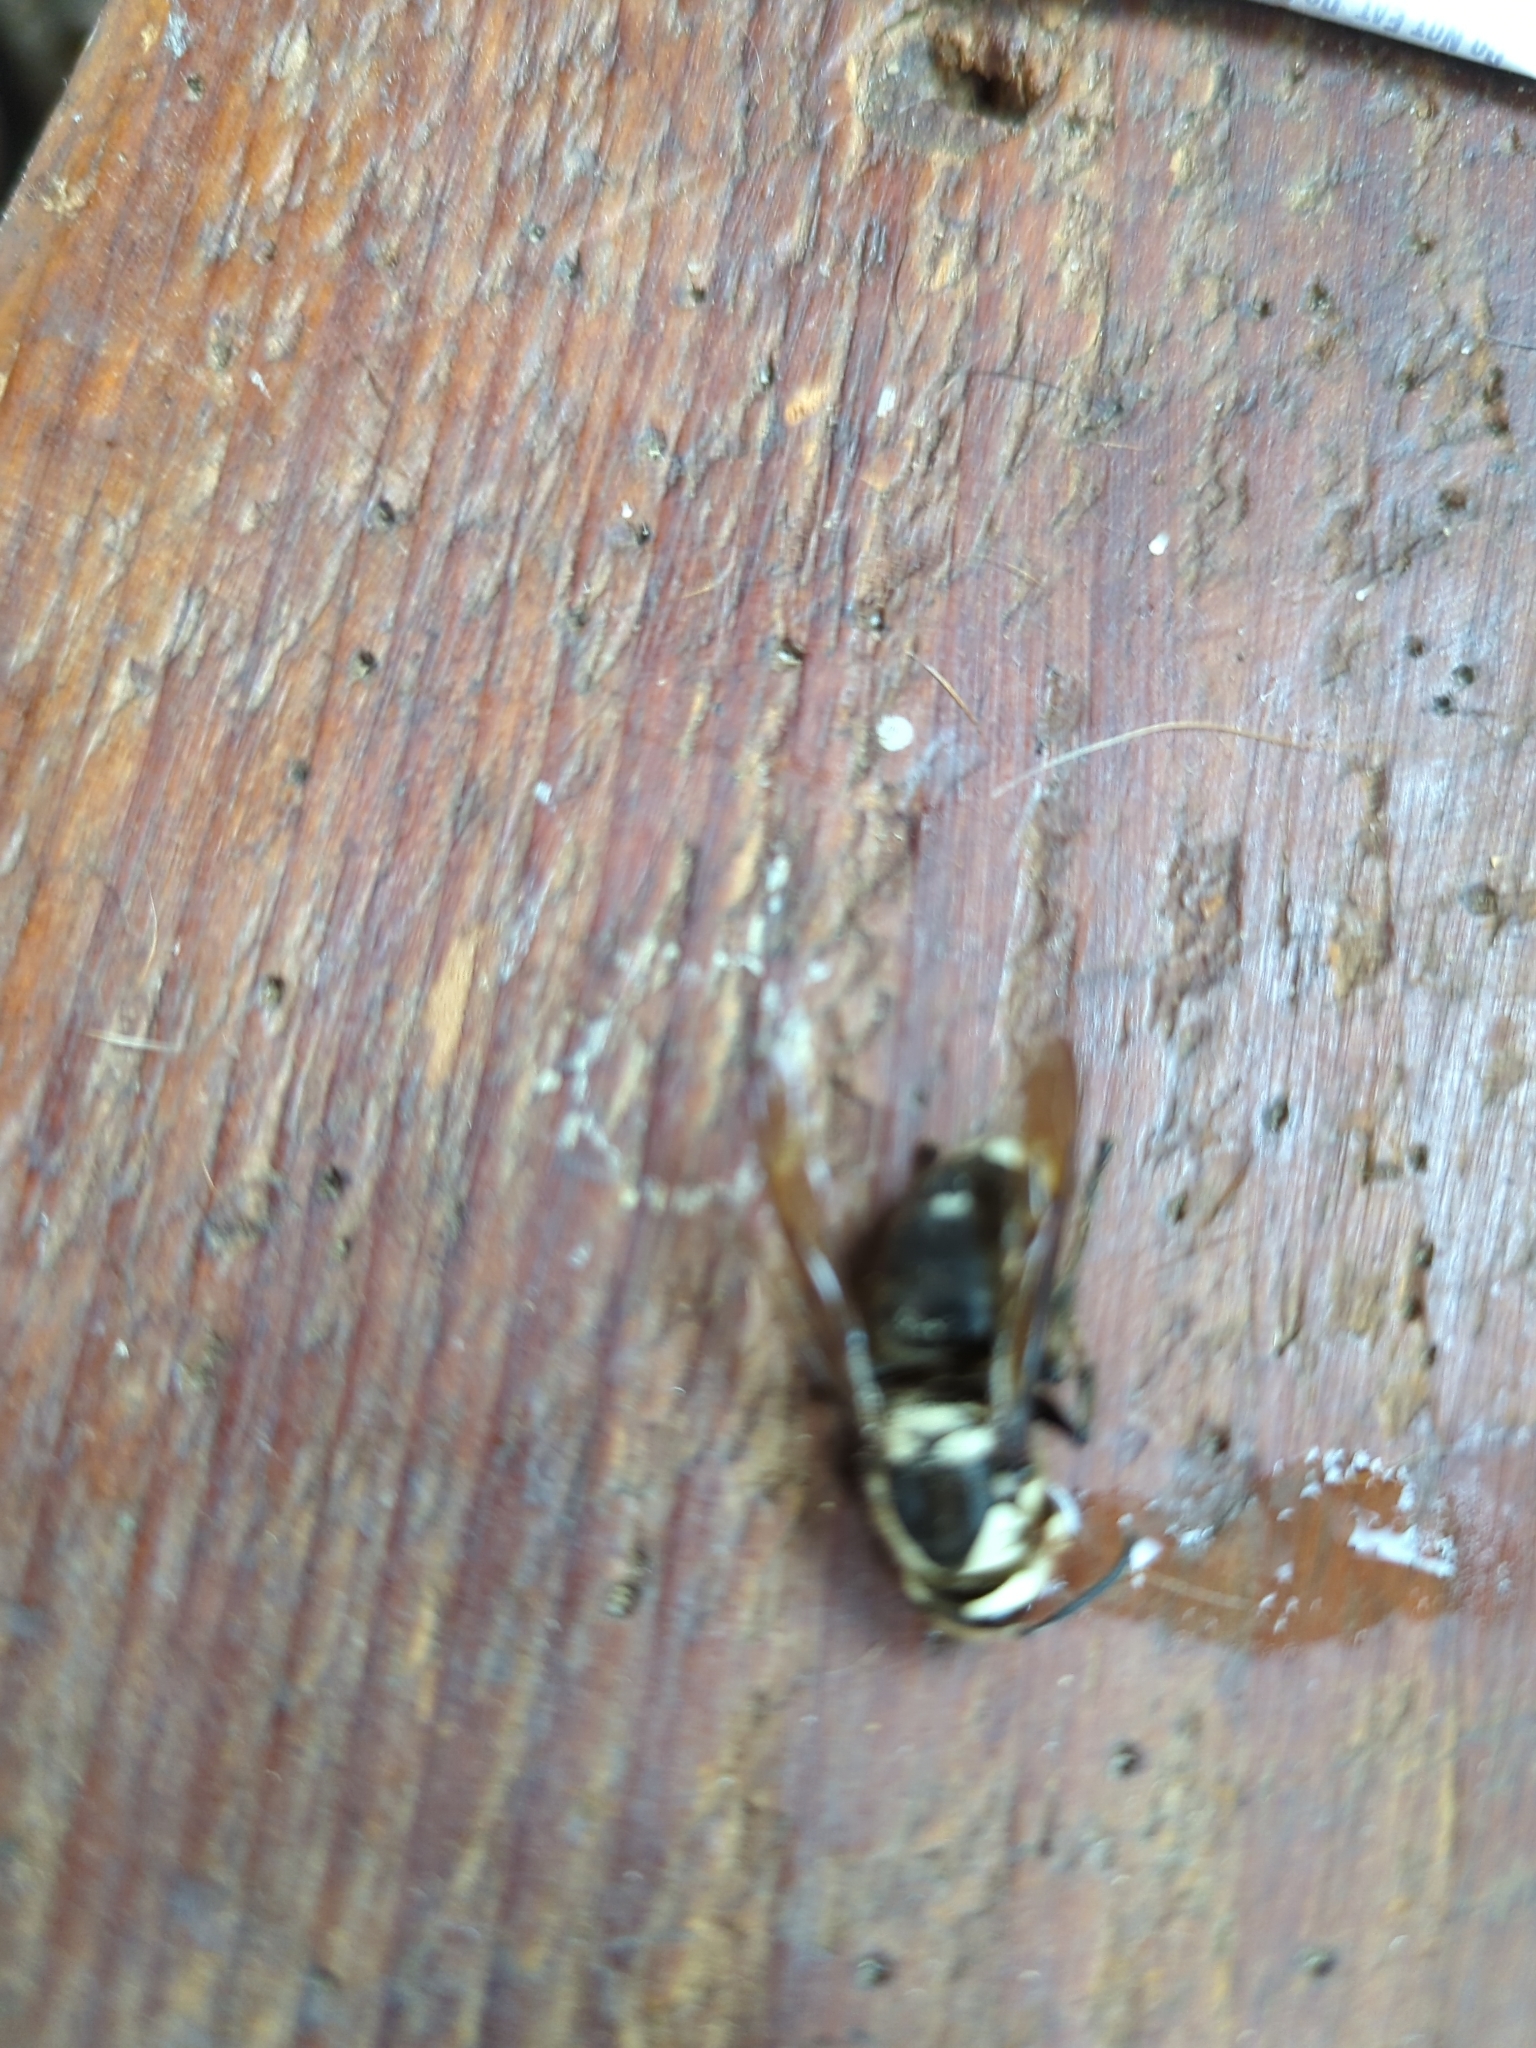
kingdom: Animalia
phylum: Arthropoda
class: Insecta
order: Hymenoptera
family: Vespidae
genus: Dolichovespula
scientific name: Dolichovespula maculata
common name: Bald-faced hornet
